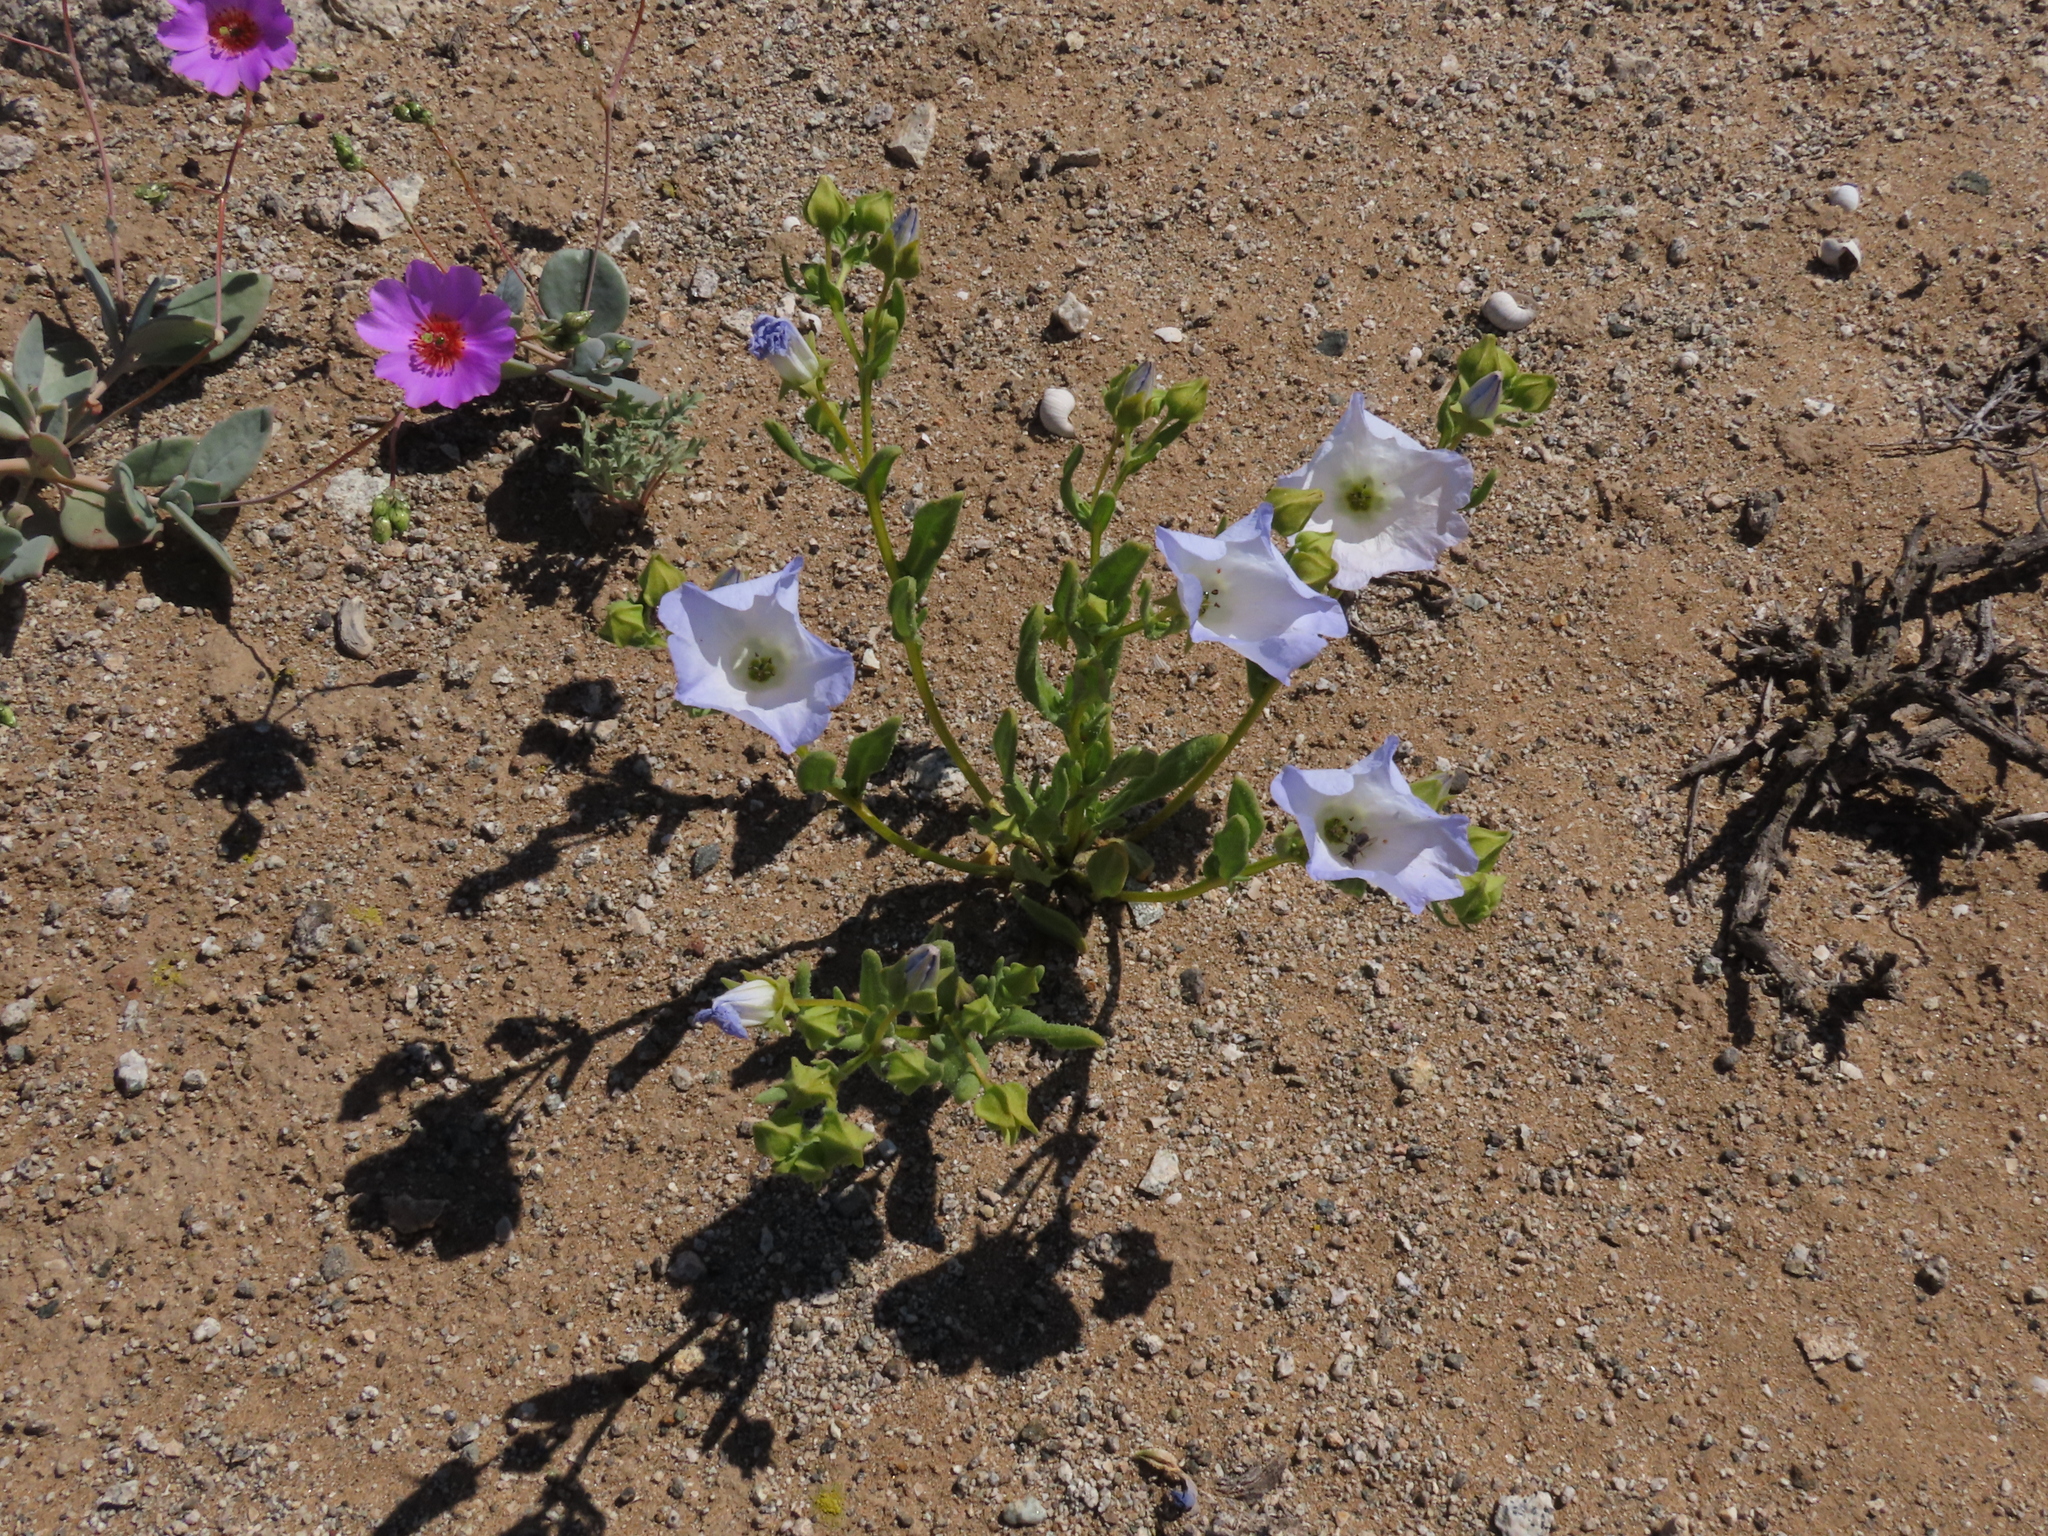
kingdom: Plantae
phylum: Tracheophyta
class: Magnoliopsida
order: Solanales
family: Solanaceae
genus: Nolana
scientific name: Nolana baccata
